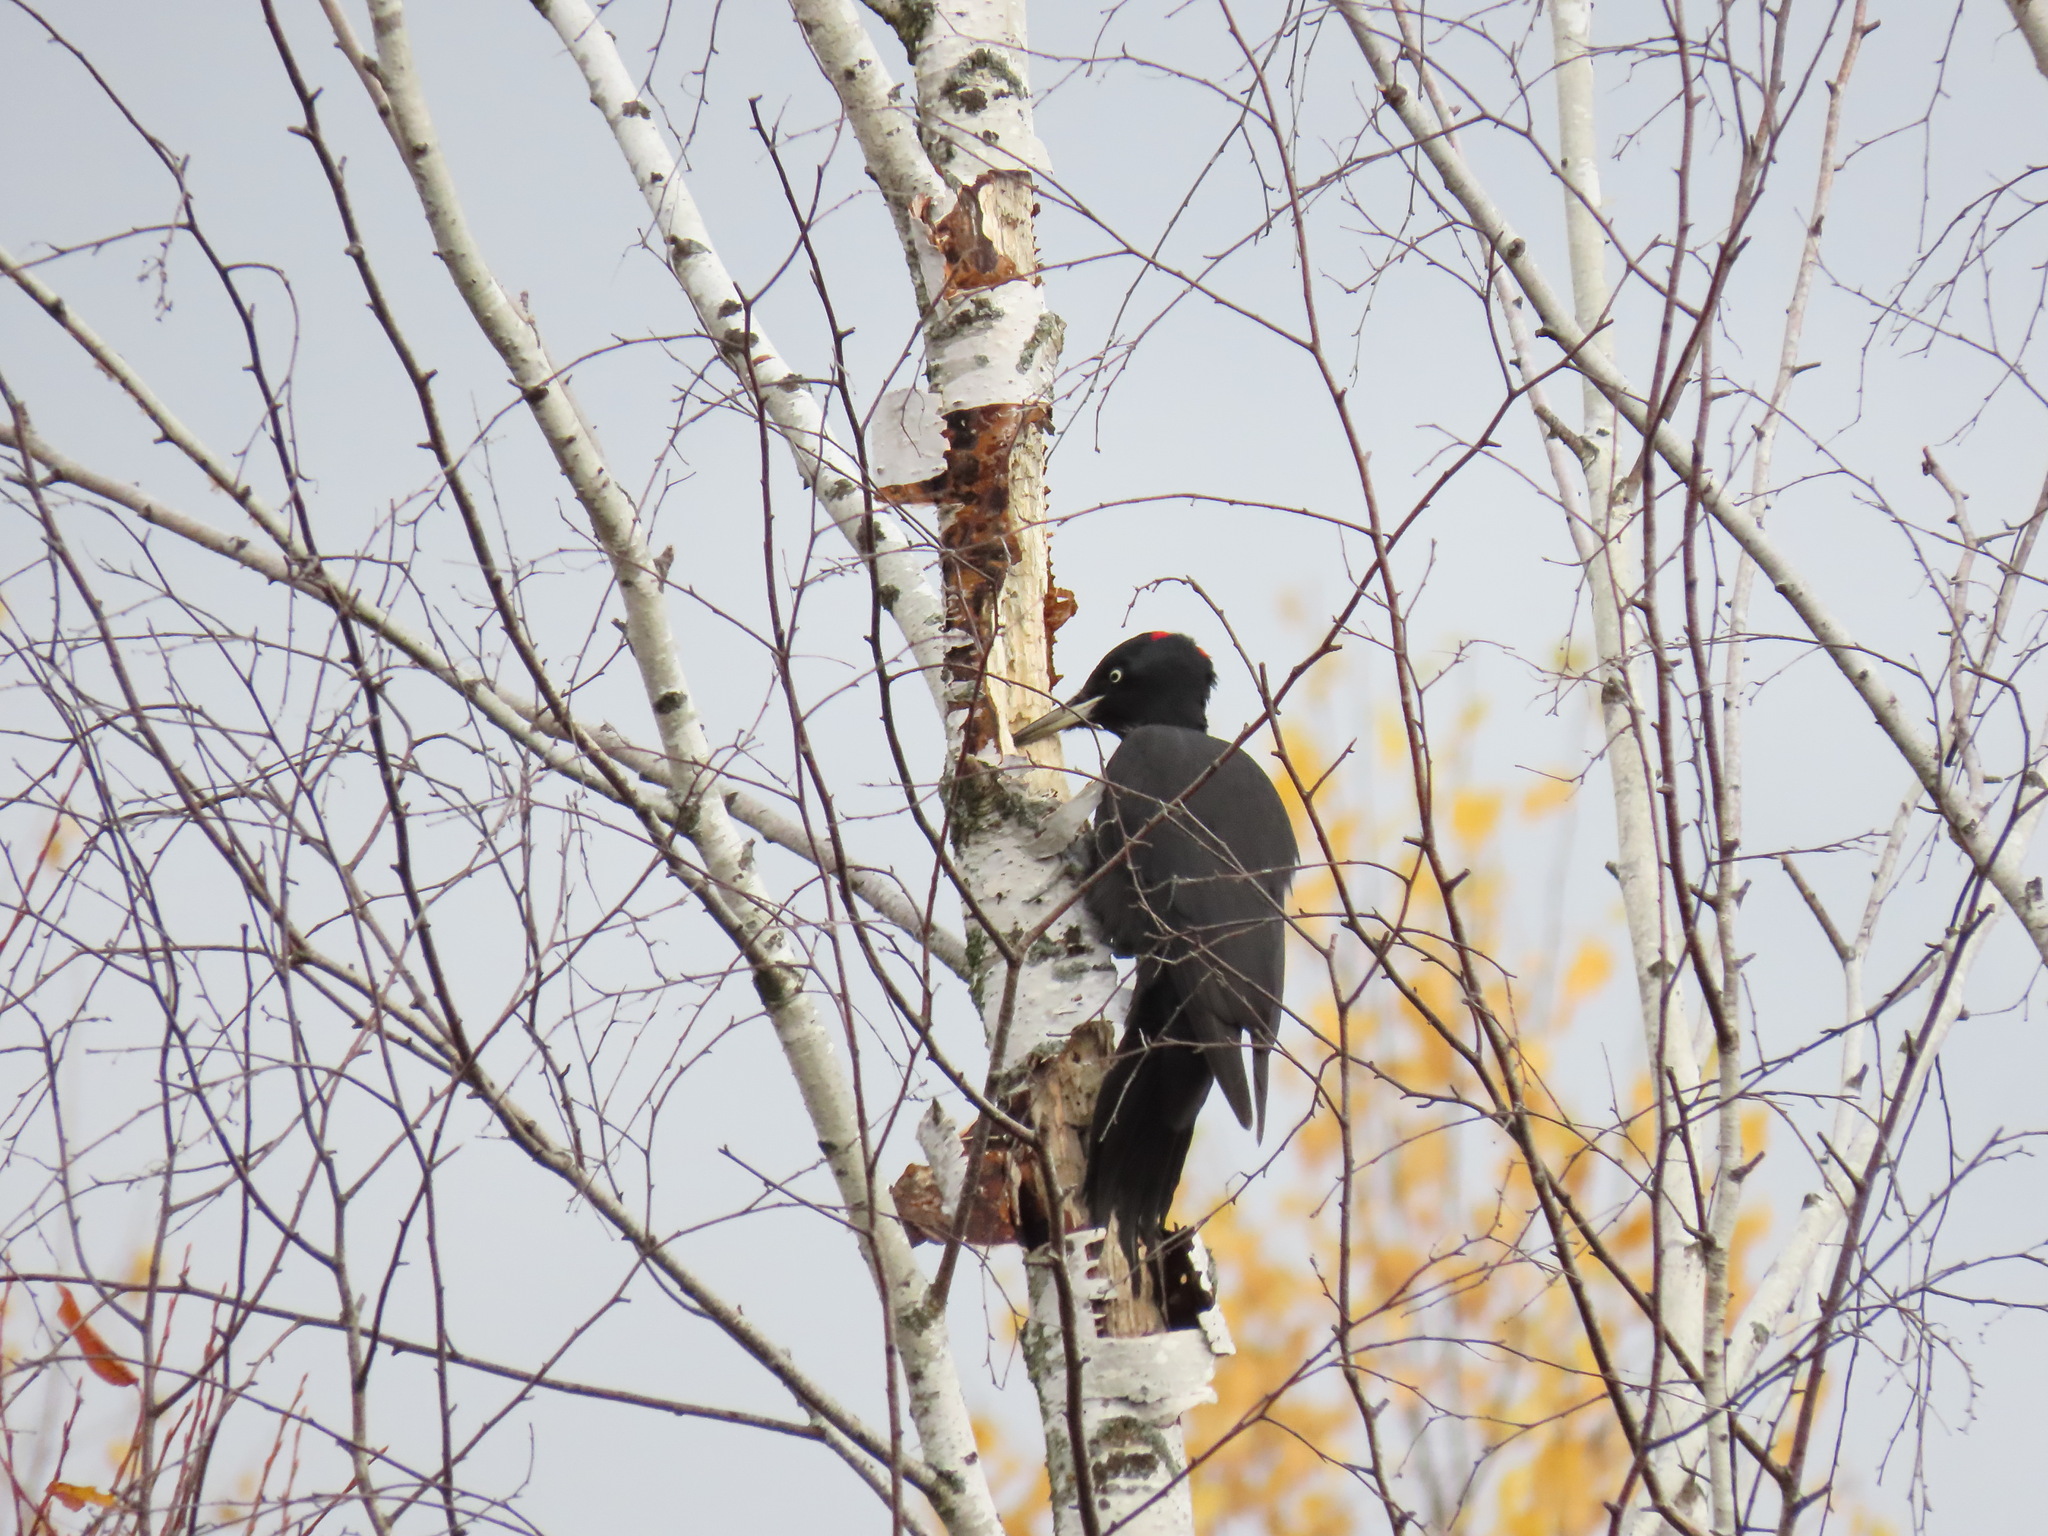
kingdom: Animalia
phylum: Chordata
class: Aves
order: Piciformes
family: Picidae
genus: Dryocopus
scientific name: Dryocopus martius
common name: Black woodpecker
